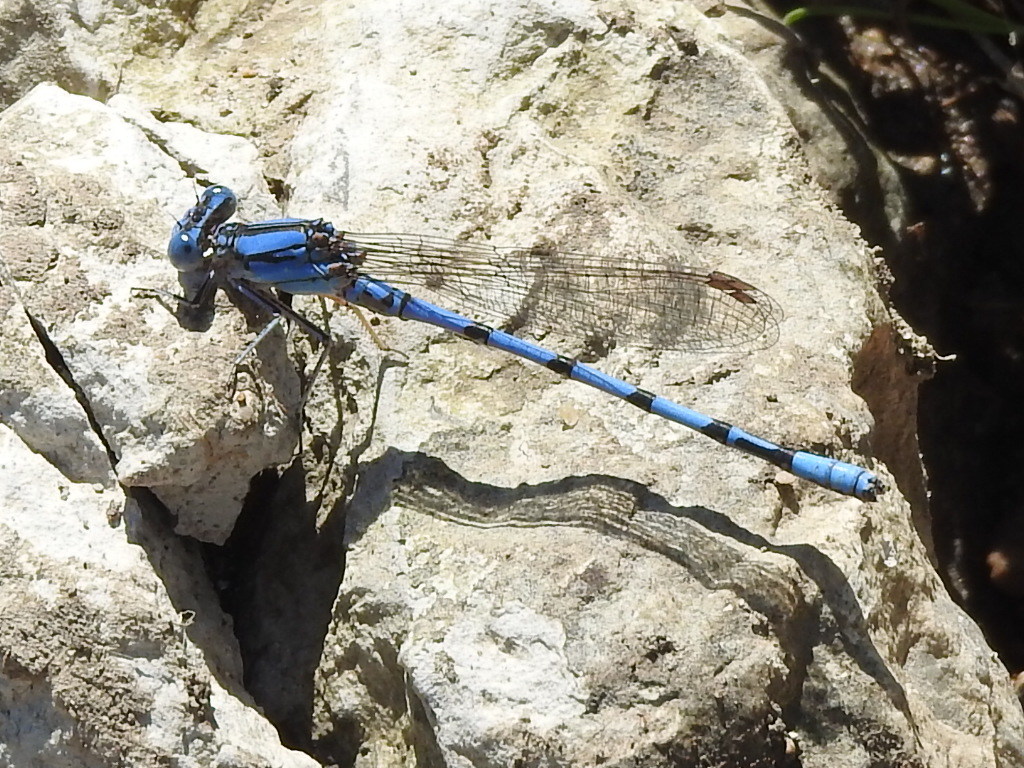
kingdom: Animalia
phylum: Arthropoda
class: Insecta
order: Odonata
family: Coenagrionidae
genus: Argia
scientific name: Argia nahuana
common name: Aztec dancer
